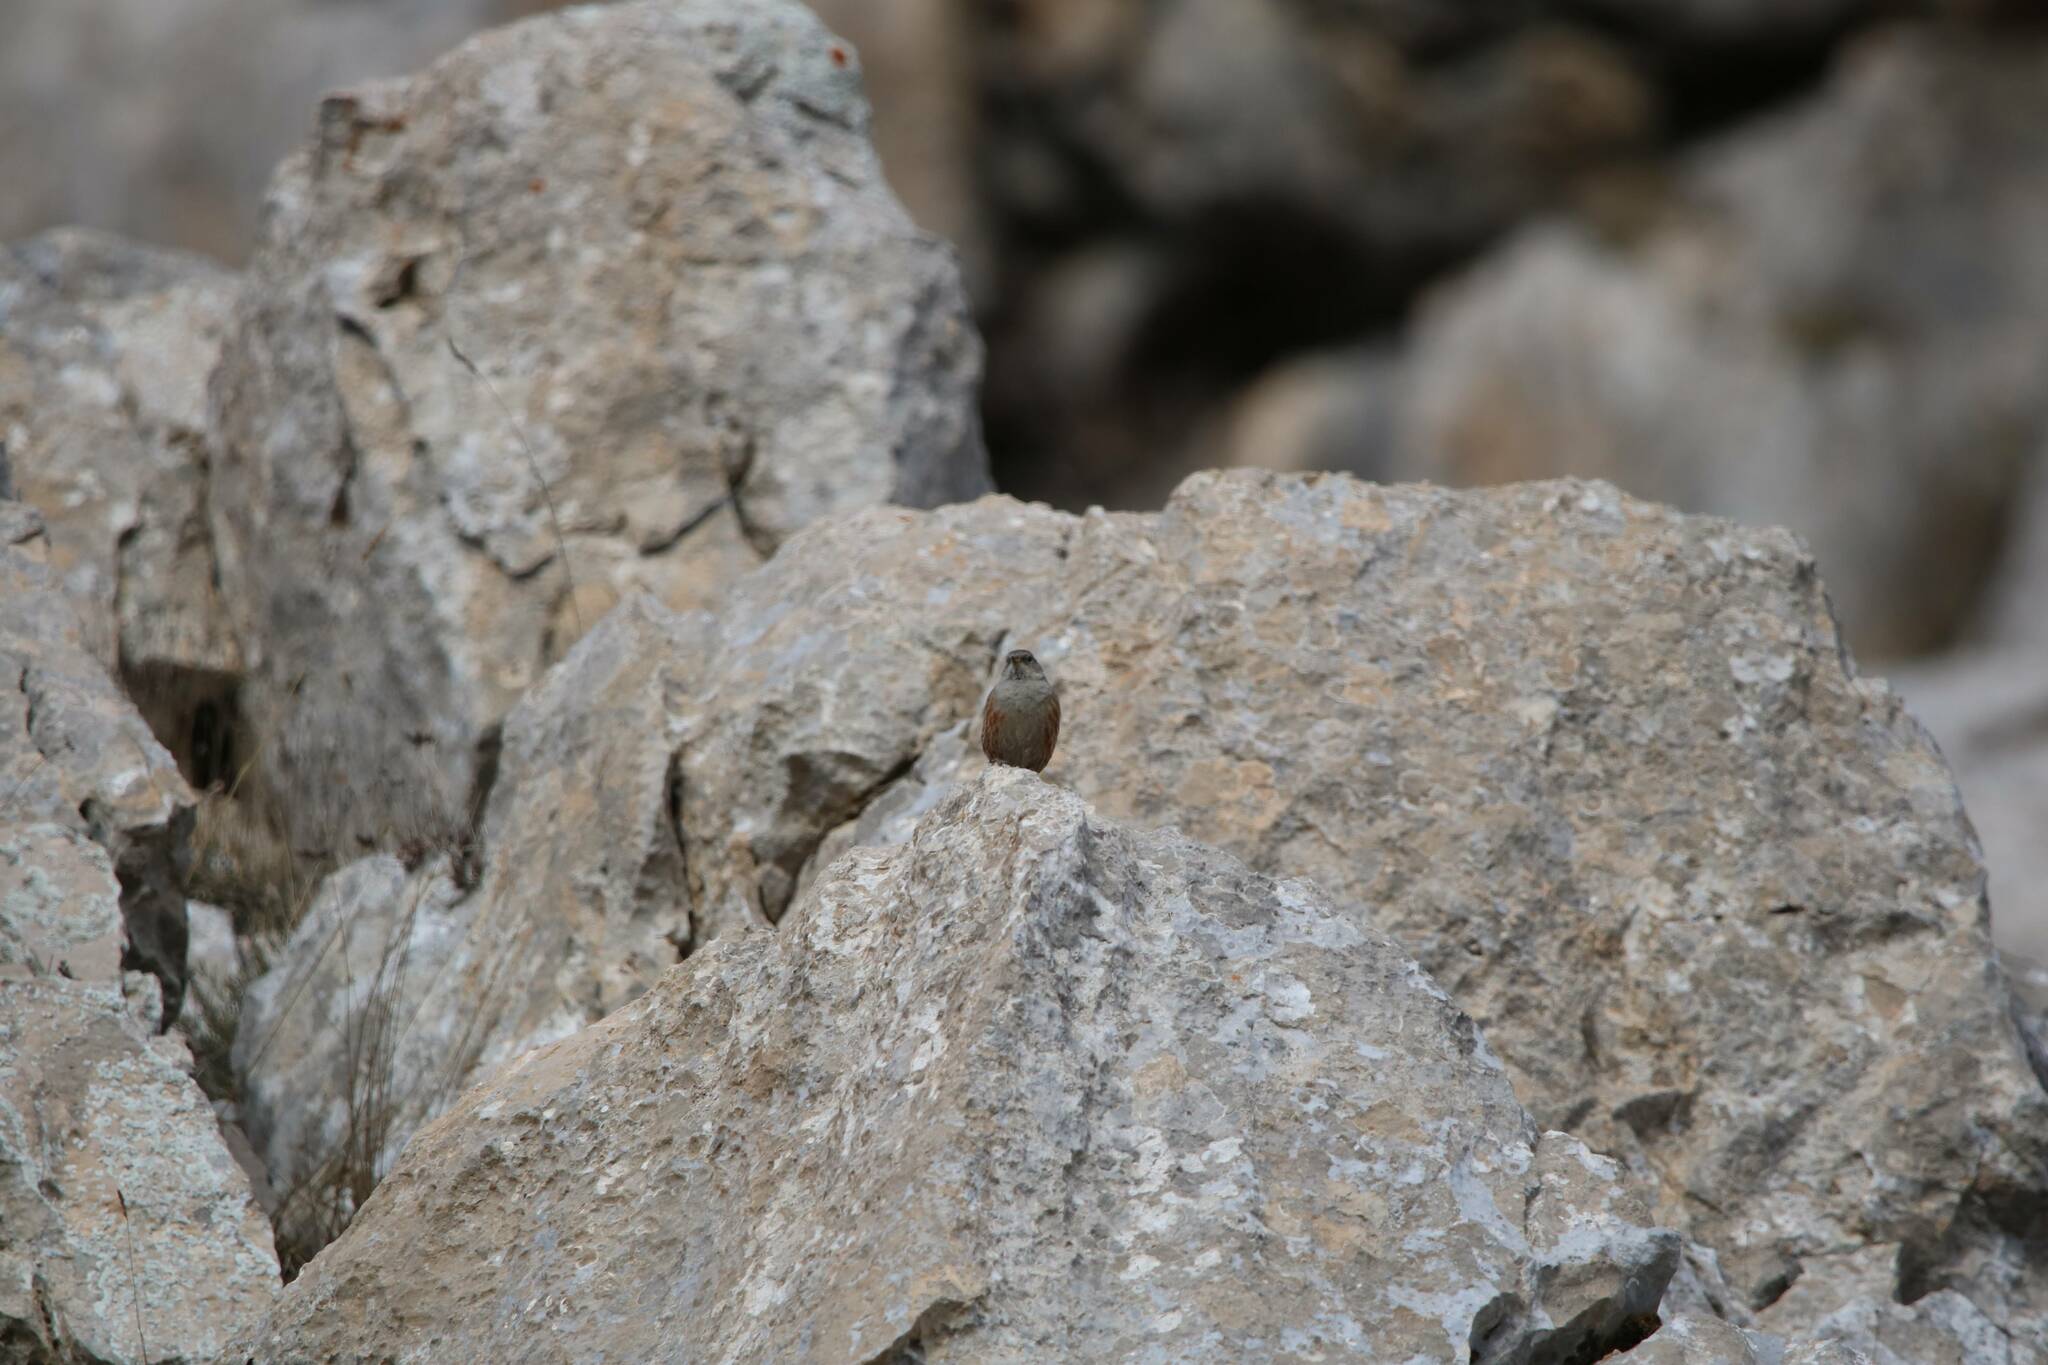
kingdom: Animalia
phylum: Chordata
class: Aves
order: Passeriformes
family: Prunellidae
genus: Prunella
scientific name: Prunella collaris
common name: Alpine accentor
